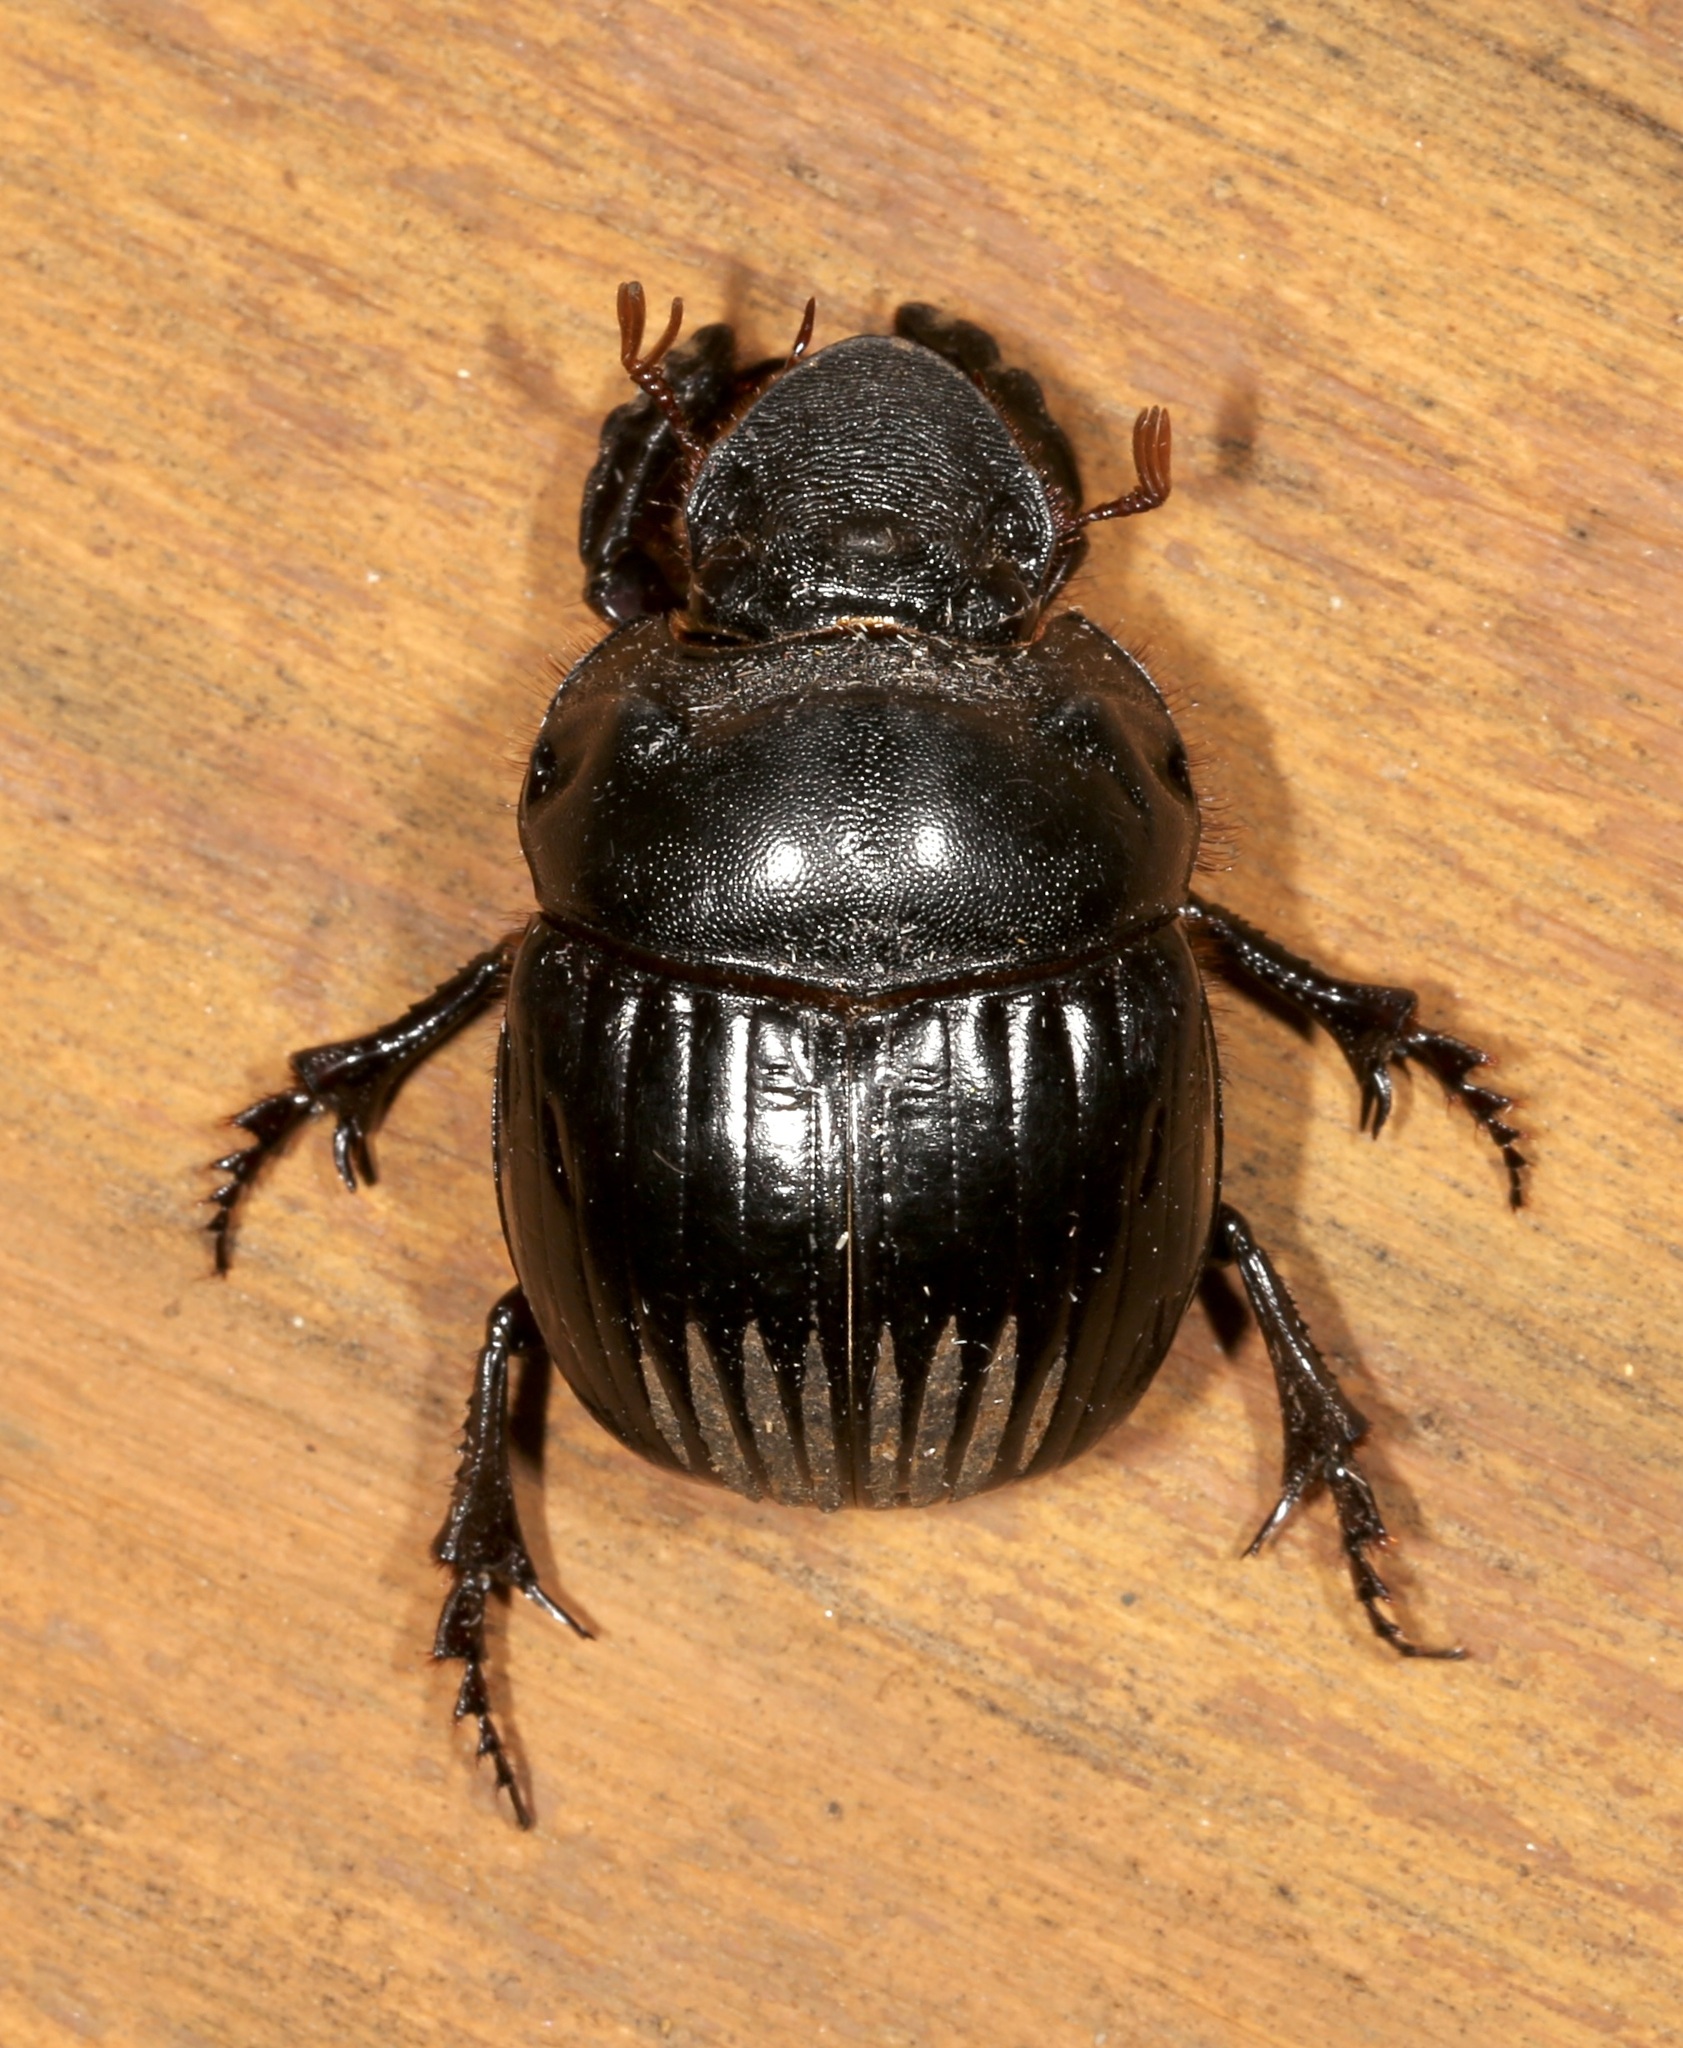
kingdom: Animalia
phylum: Arthropoda
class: Insecta
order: Coleoptera
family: Scarabaeidae
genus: Dichotomius
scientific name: Dichotomius colonicus
